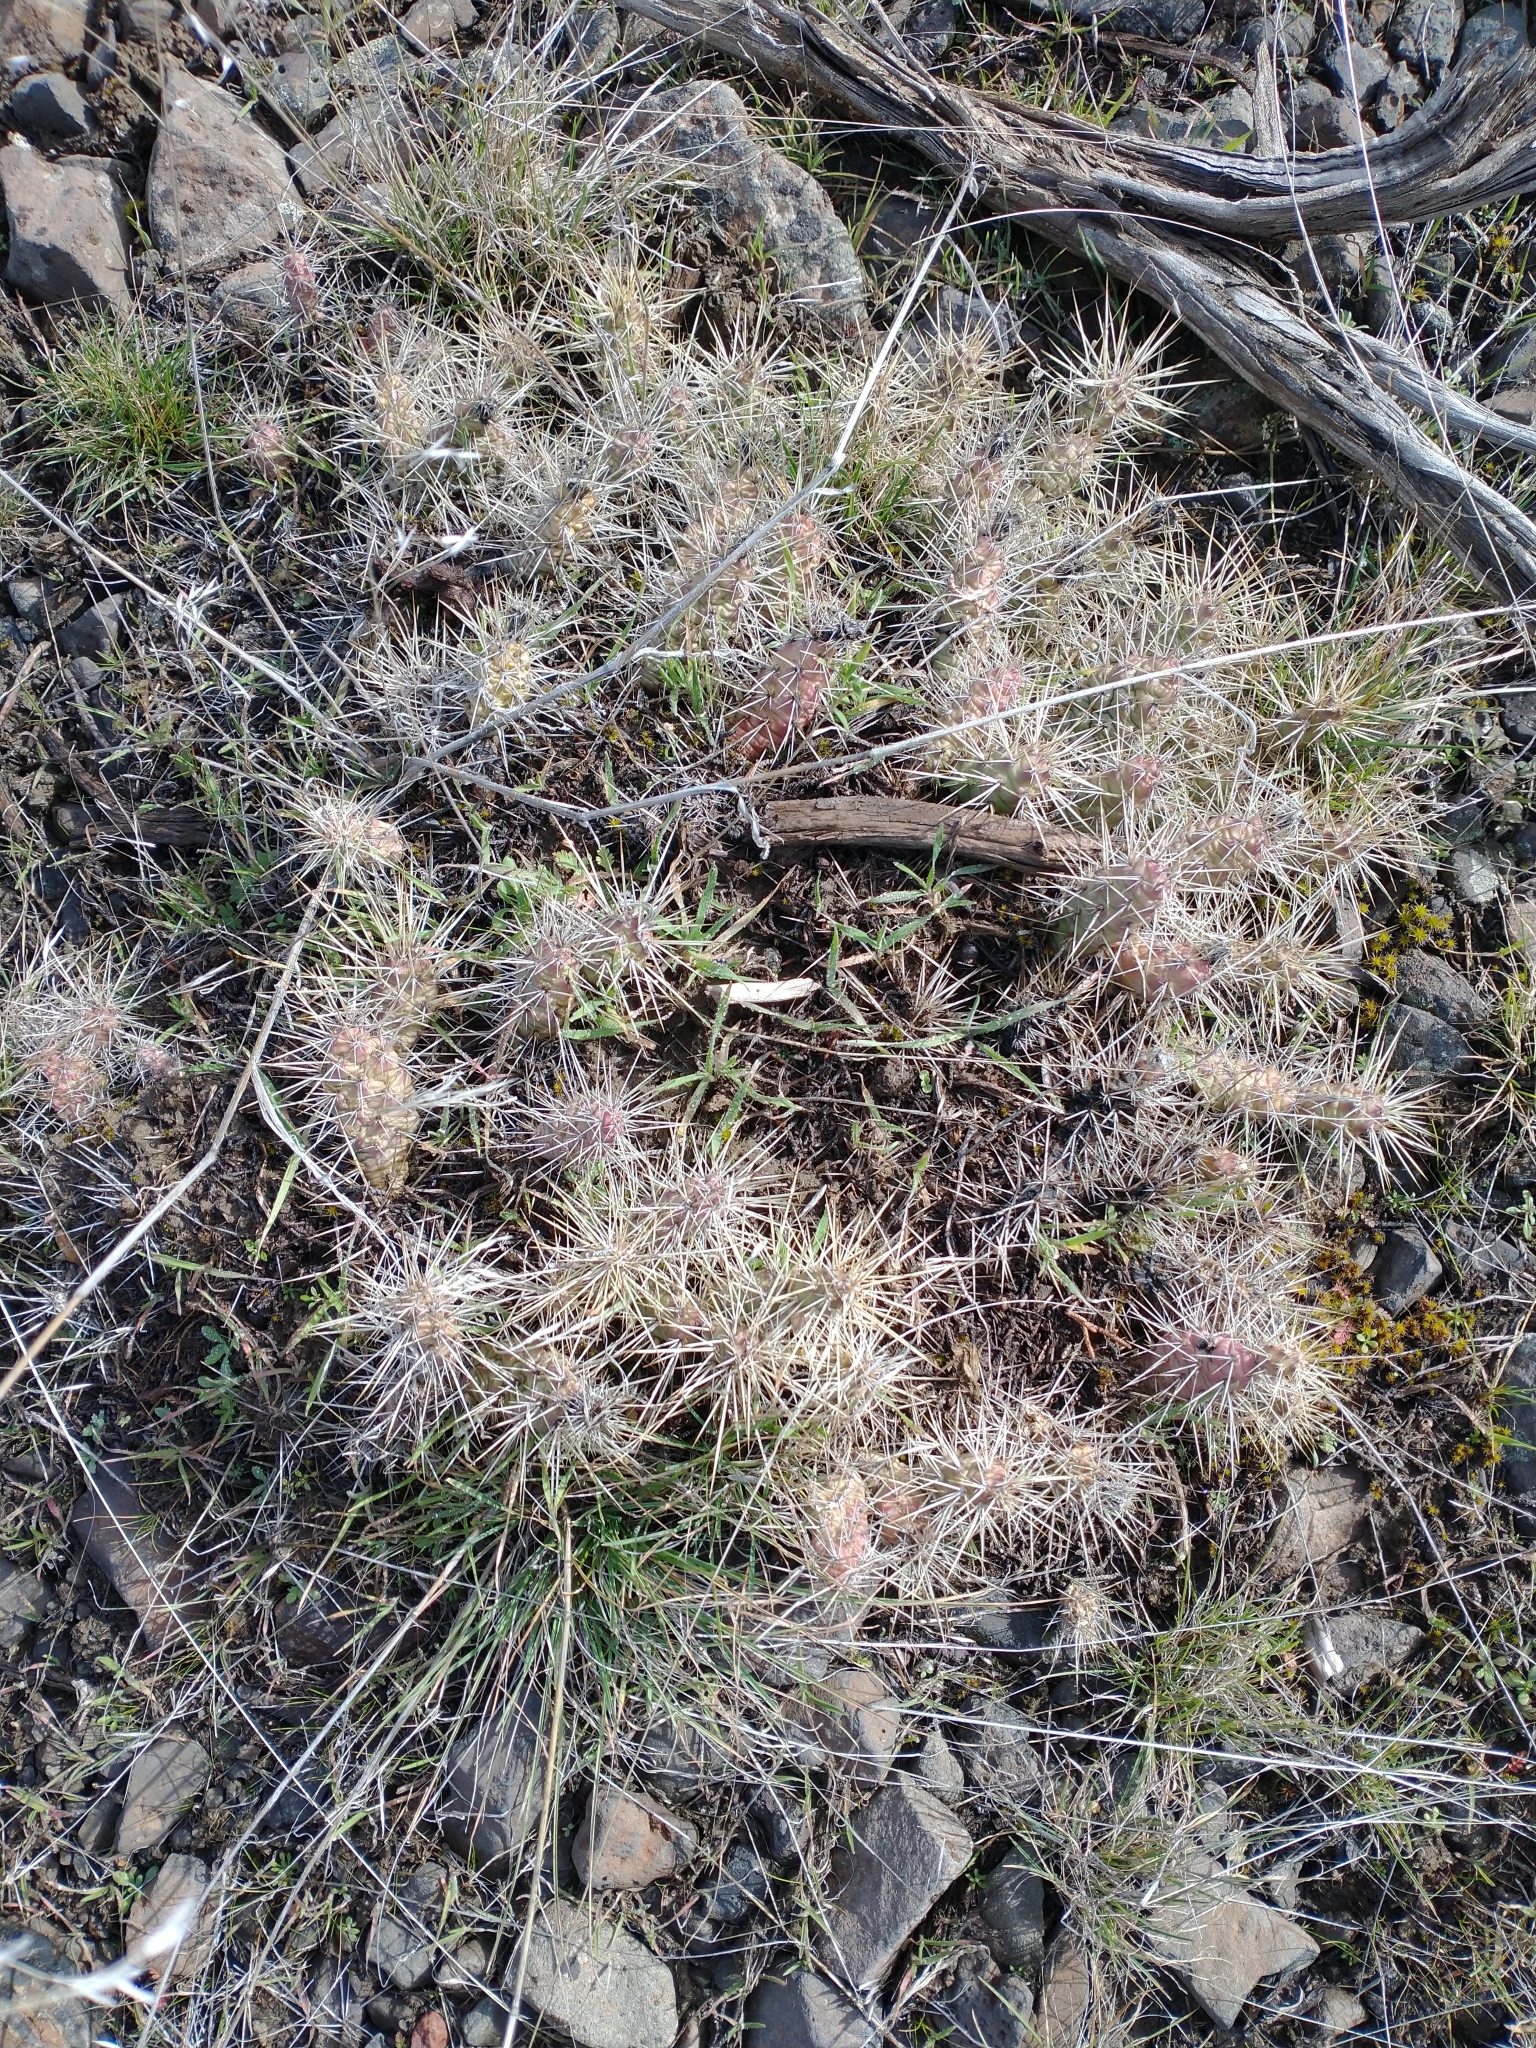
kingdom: Plantae
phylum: Tracheophyta
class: Magnoliopsida
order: Caryophyllales
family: Cactaceae
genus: Opuntia
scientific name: Opuntia fragilis
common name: Brittle cactus
